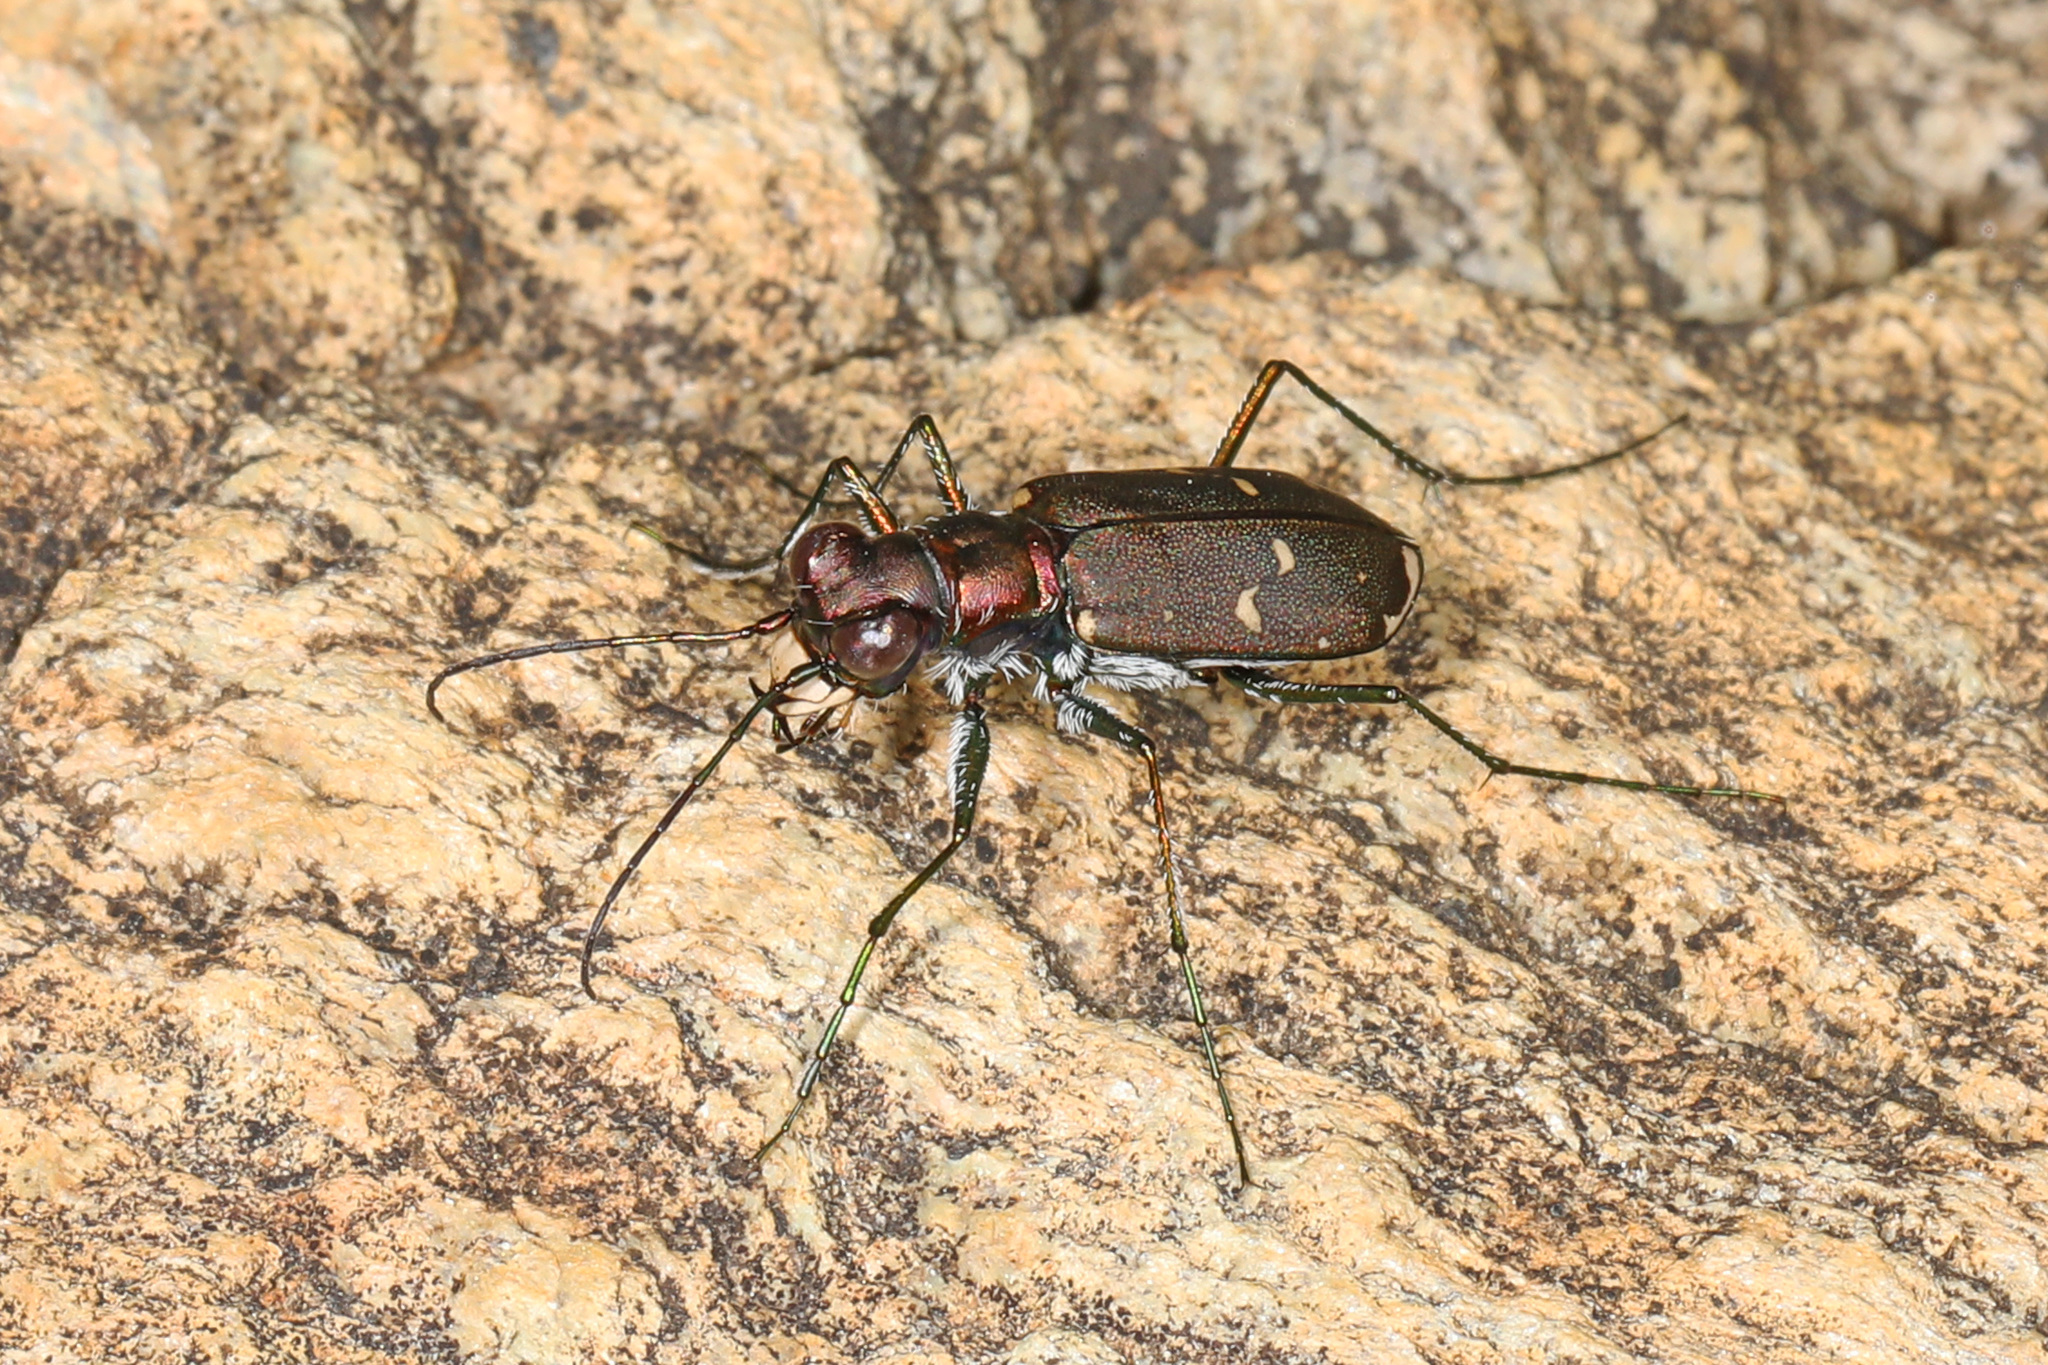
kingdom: Animalia
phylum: Arthropoda
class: Insecta
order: Coleoptera
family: Carabidae
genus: Cicindela
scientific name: Cicindela rufiventris
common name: Eastern red-bellied tiger beetle
